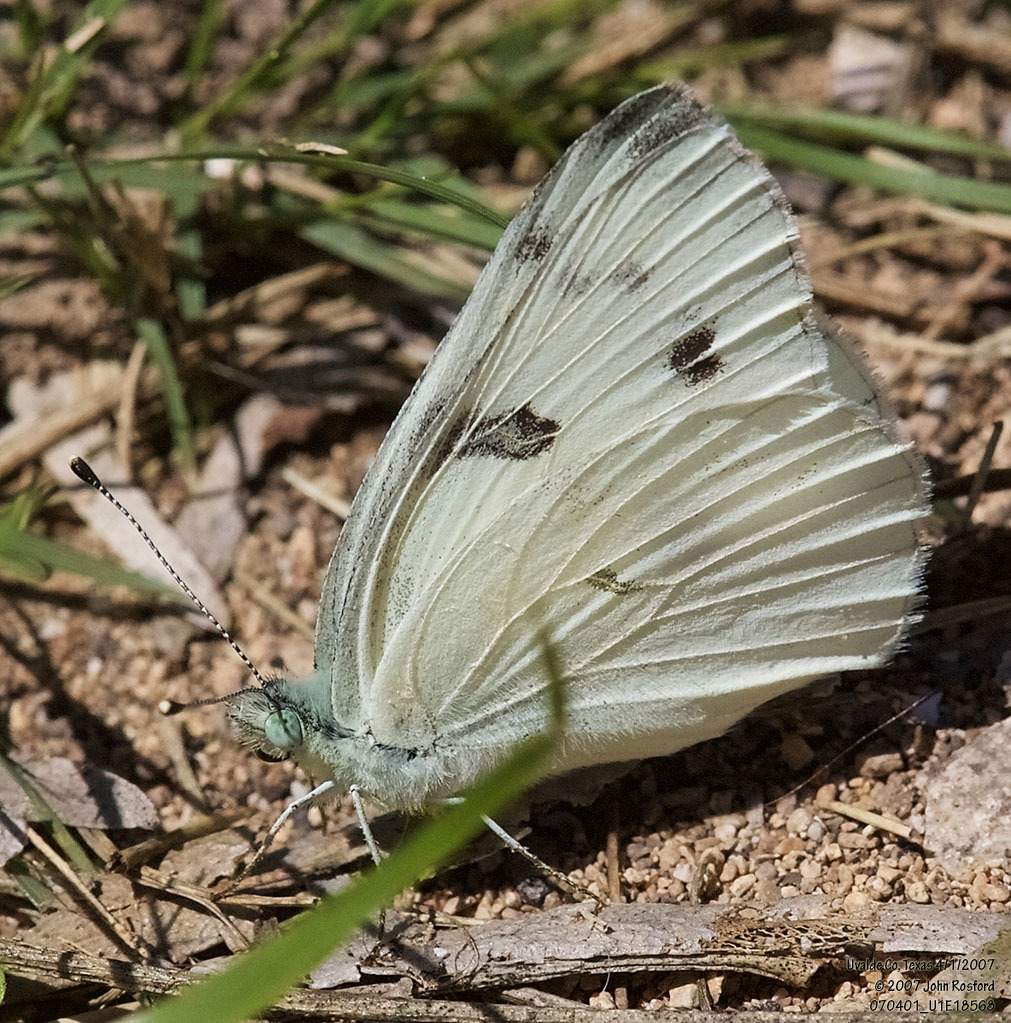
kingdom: Animalia
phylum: Arthropoda
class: Insecta
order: Lepidoptera
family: Pieridae
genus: Pontia
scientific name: Pontia protodice
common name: Checkered white
